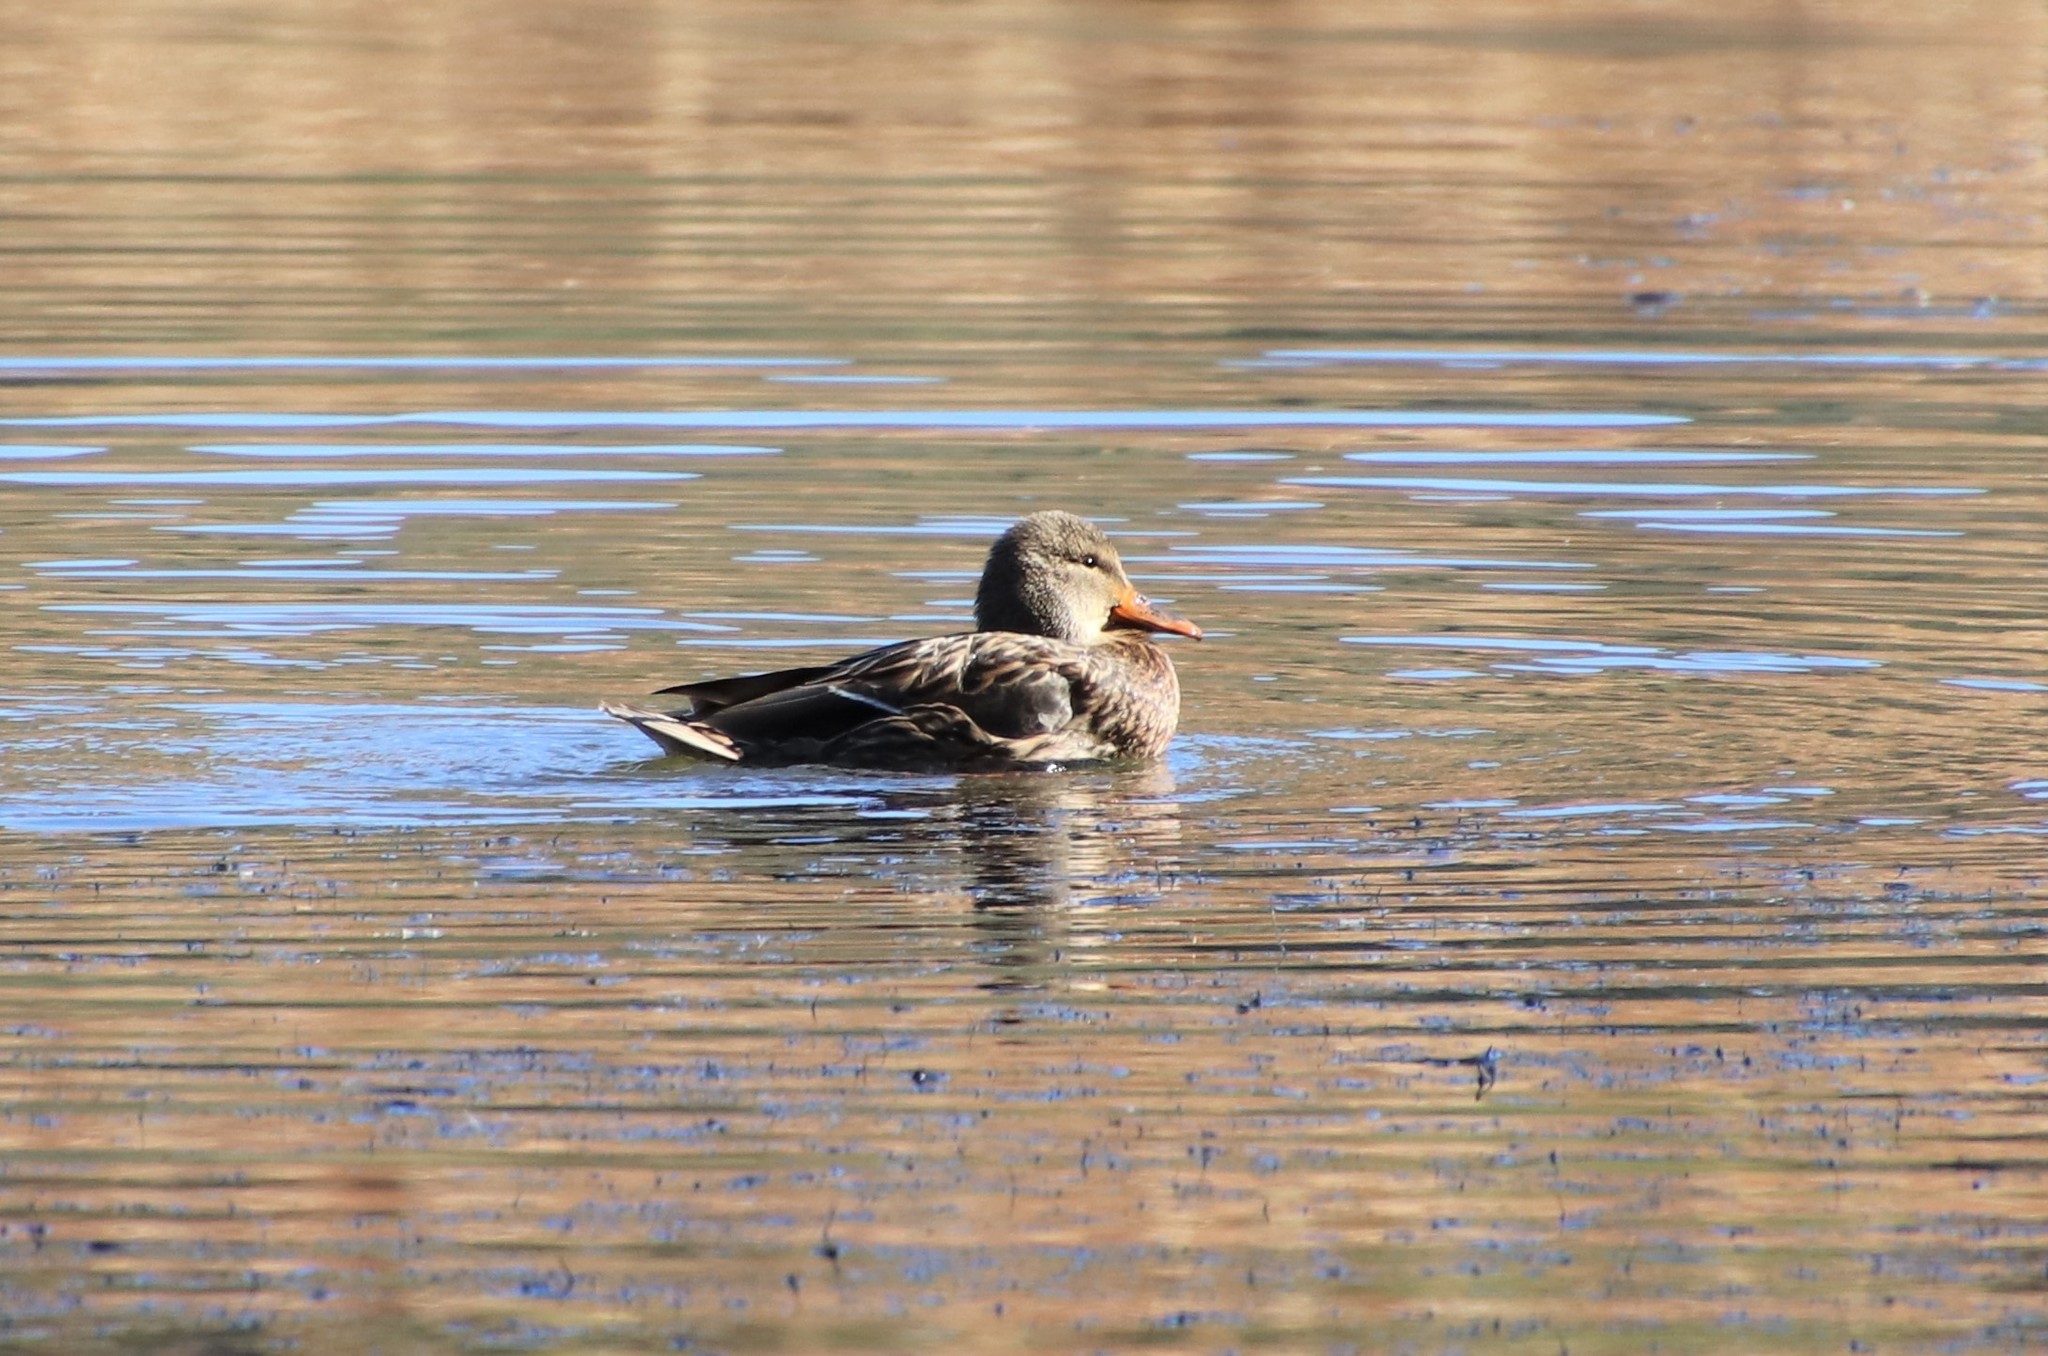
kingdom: Animalia
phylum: Chordata
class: Aves
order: Anseriformes
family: Anatidae
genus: Anas
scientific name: Anas platyrhynchos
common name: Mallard
